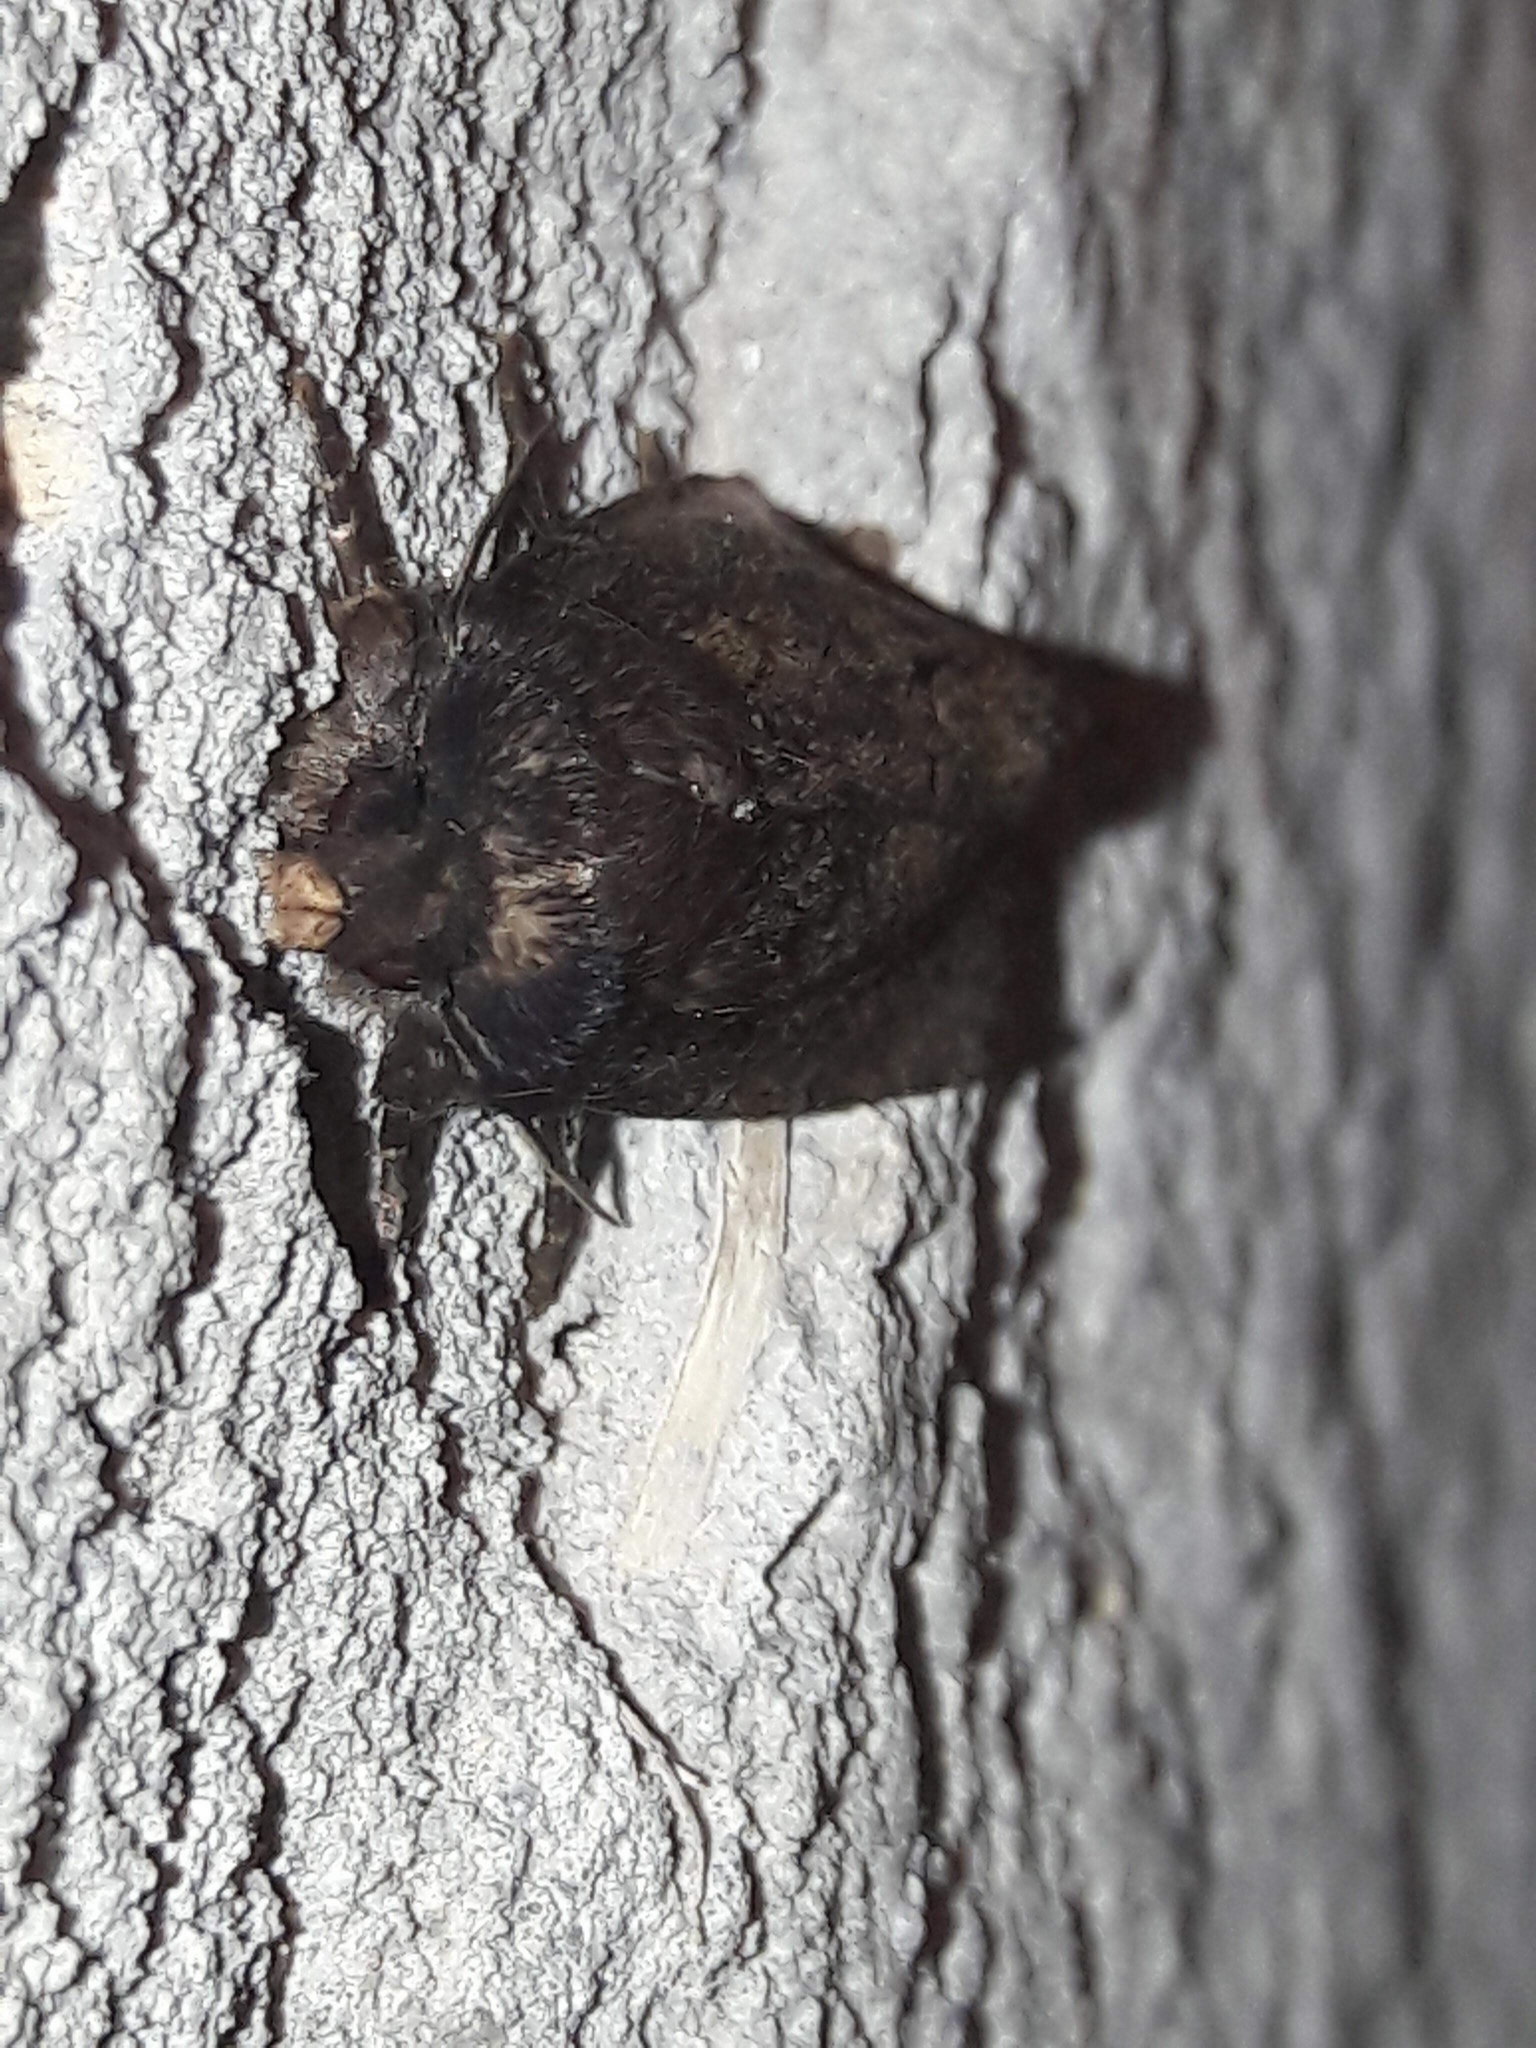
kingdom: Animalia
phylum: Arthropoda
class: Insecta
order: Lepidoptera
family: Noctuidae
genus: Bityla
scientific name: Bityla defigurata
